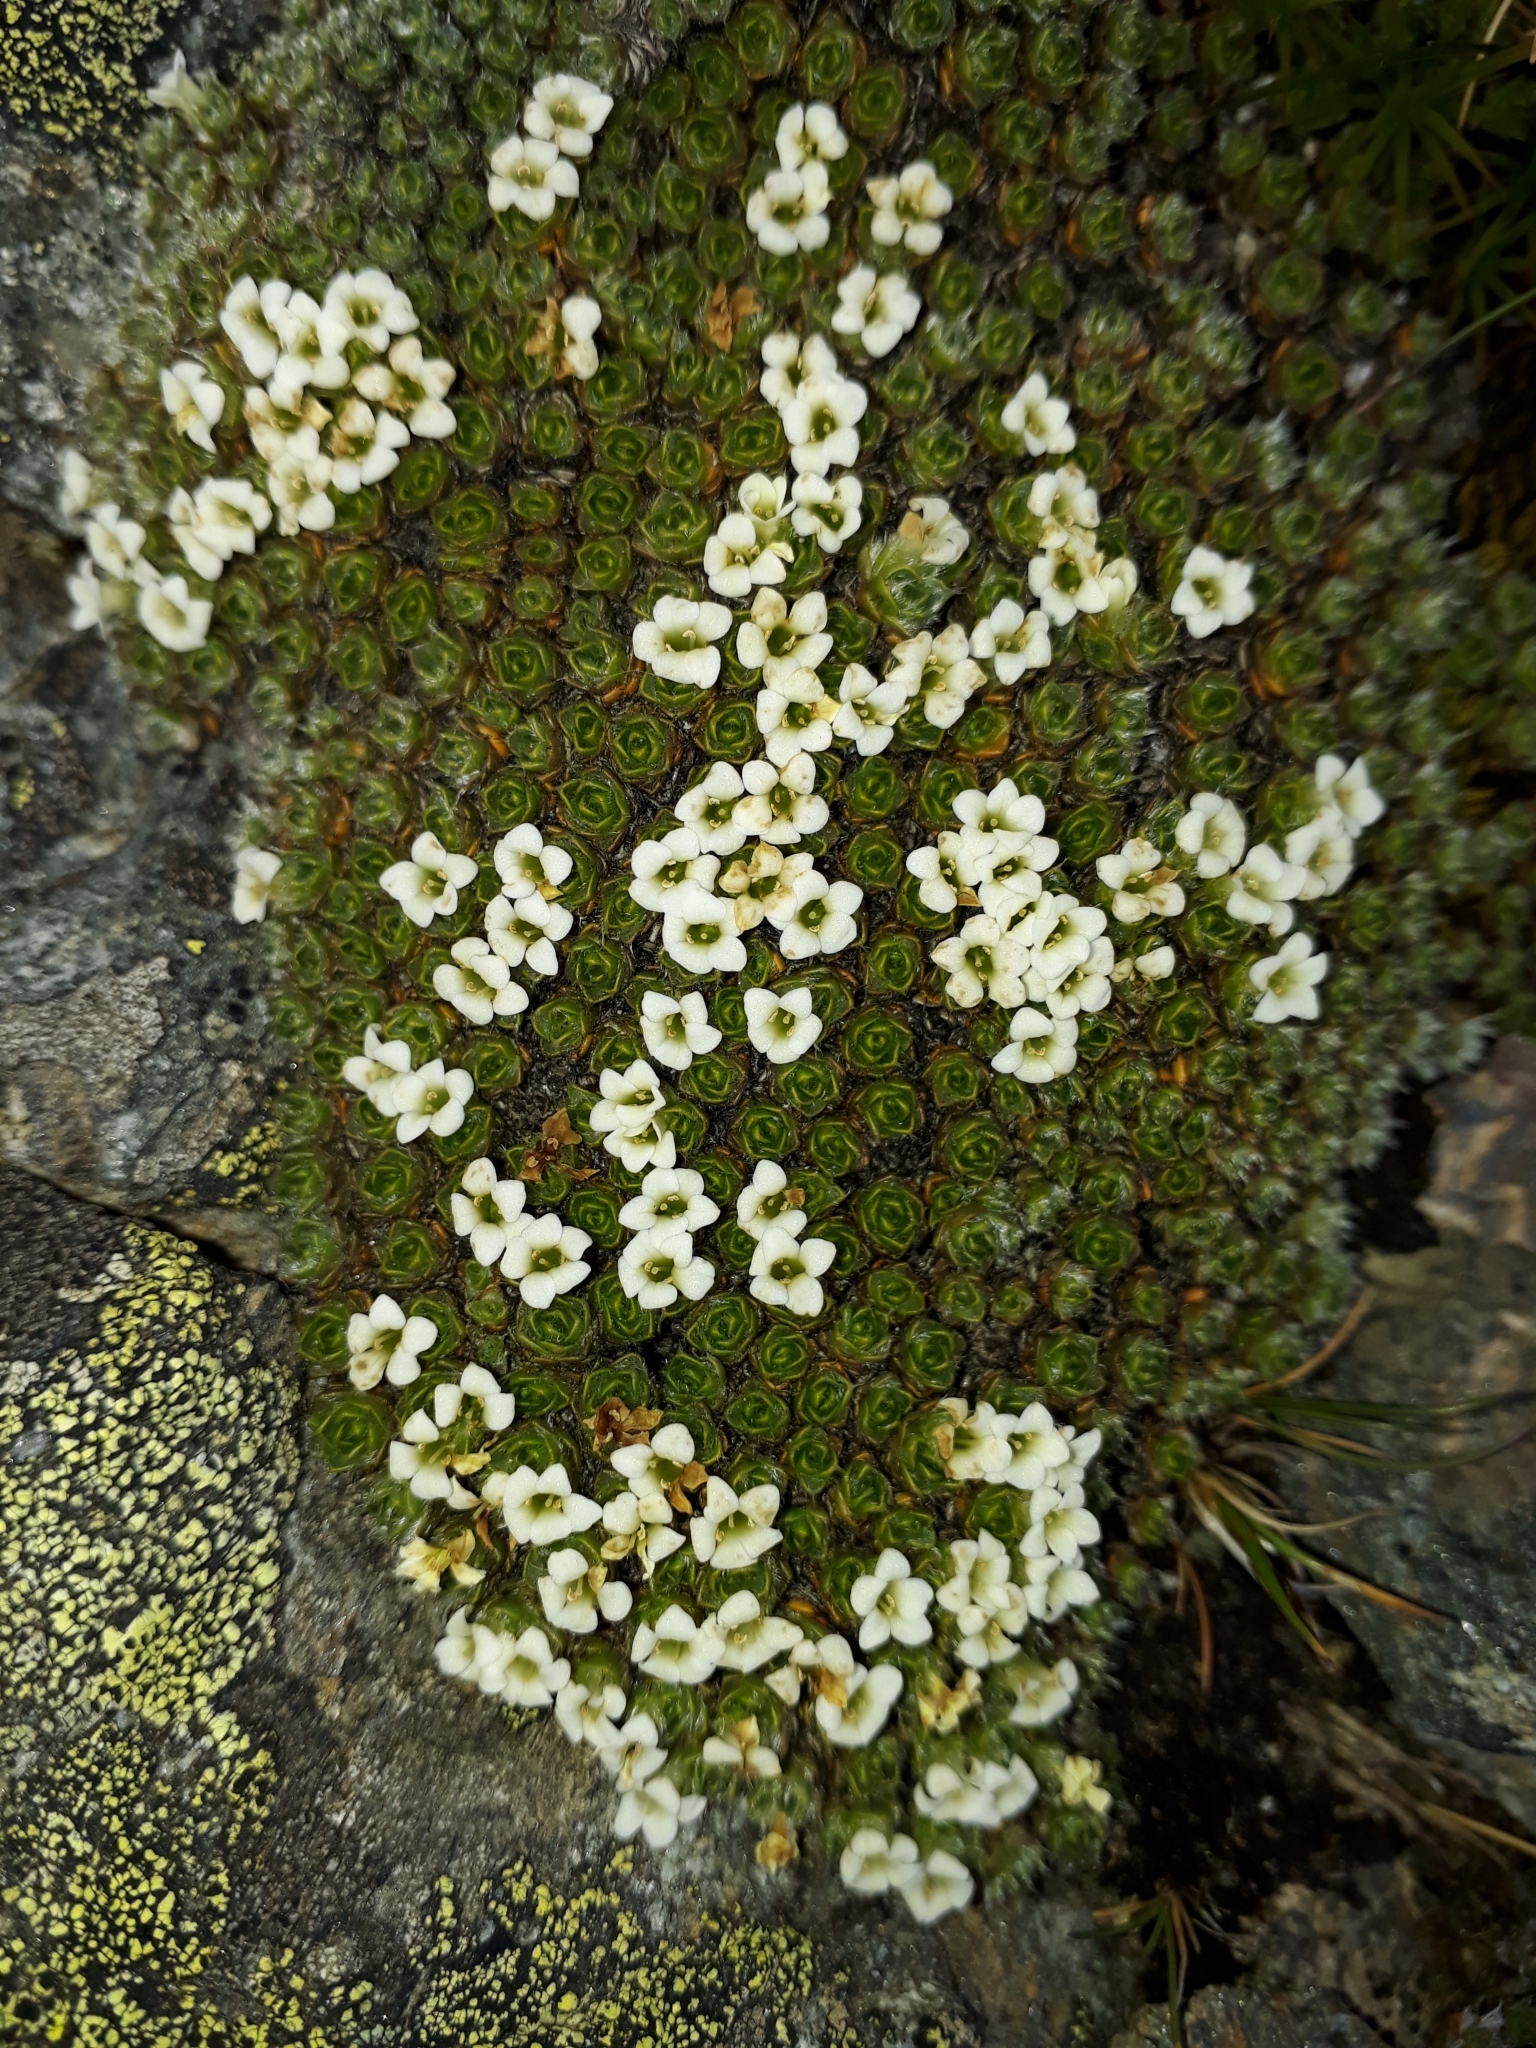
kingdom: Plantae
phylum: Tracheophyta
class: Magnoliopsida
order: Lamiales
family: Plantaginaceae
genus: Veronica
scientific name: Veronica thomsonii
